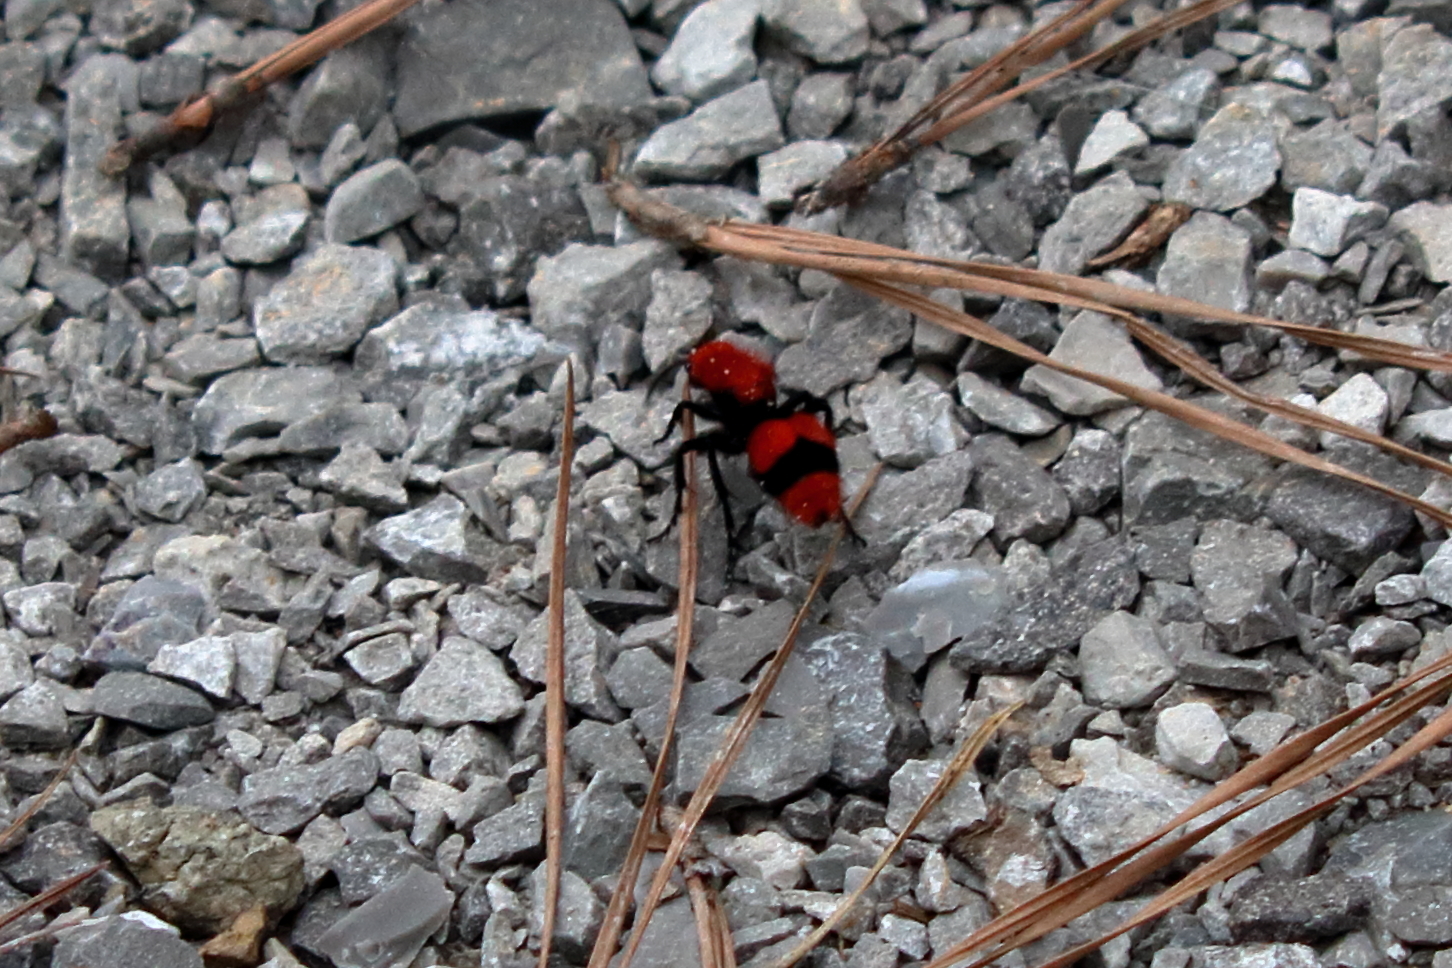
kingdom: Animalia
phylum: Arthropoda
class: Insecta
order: Hymenoptera
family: Mutillidae
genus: Dasymutilla
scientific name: Dasymutilla occidentalis
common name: Common eastern velvet ant
